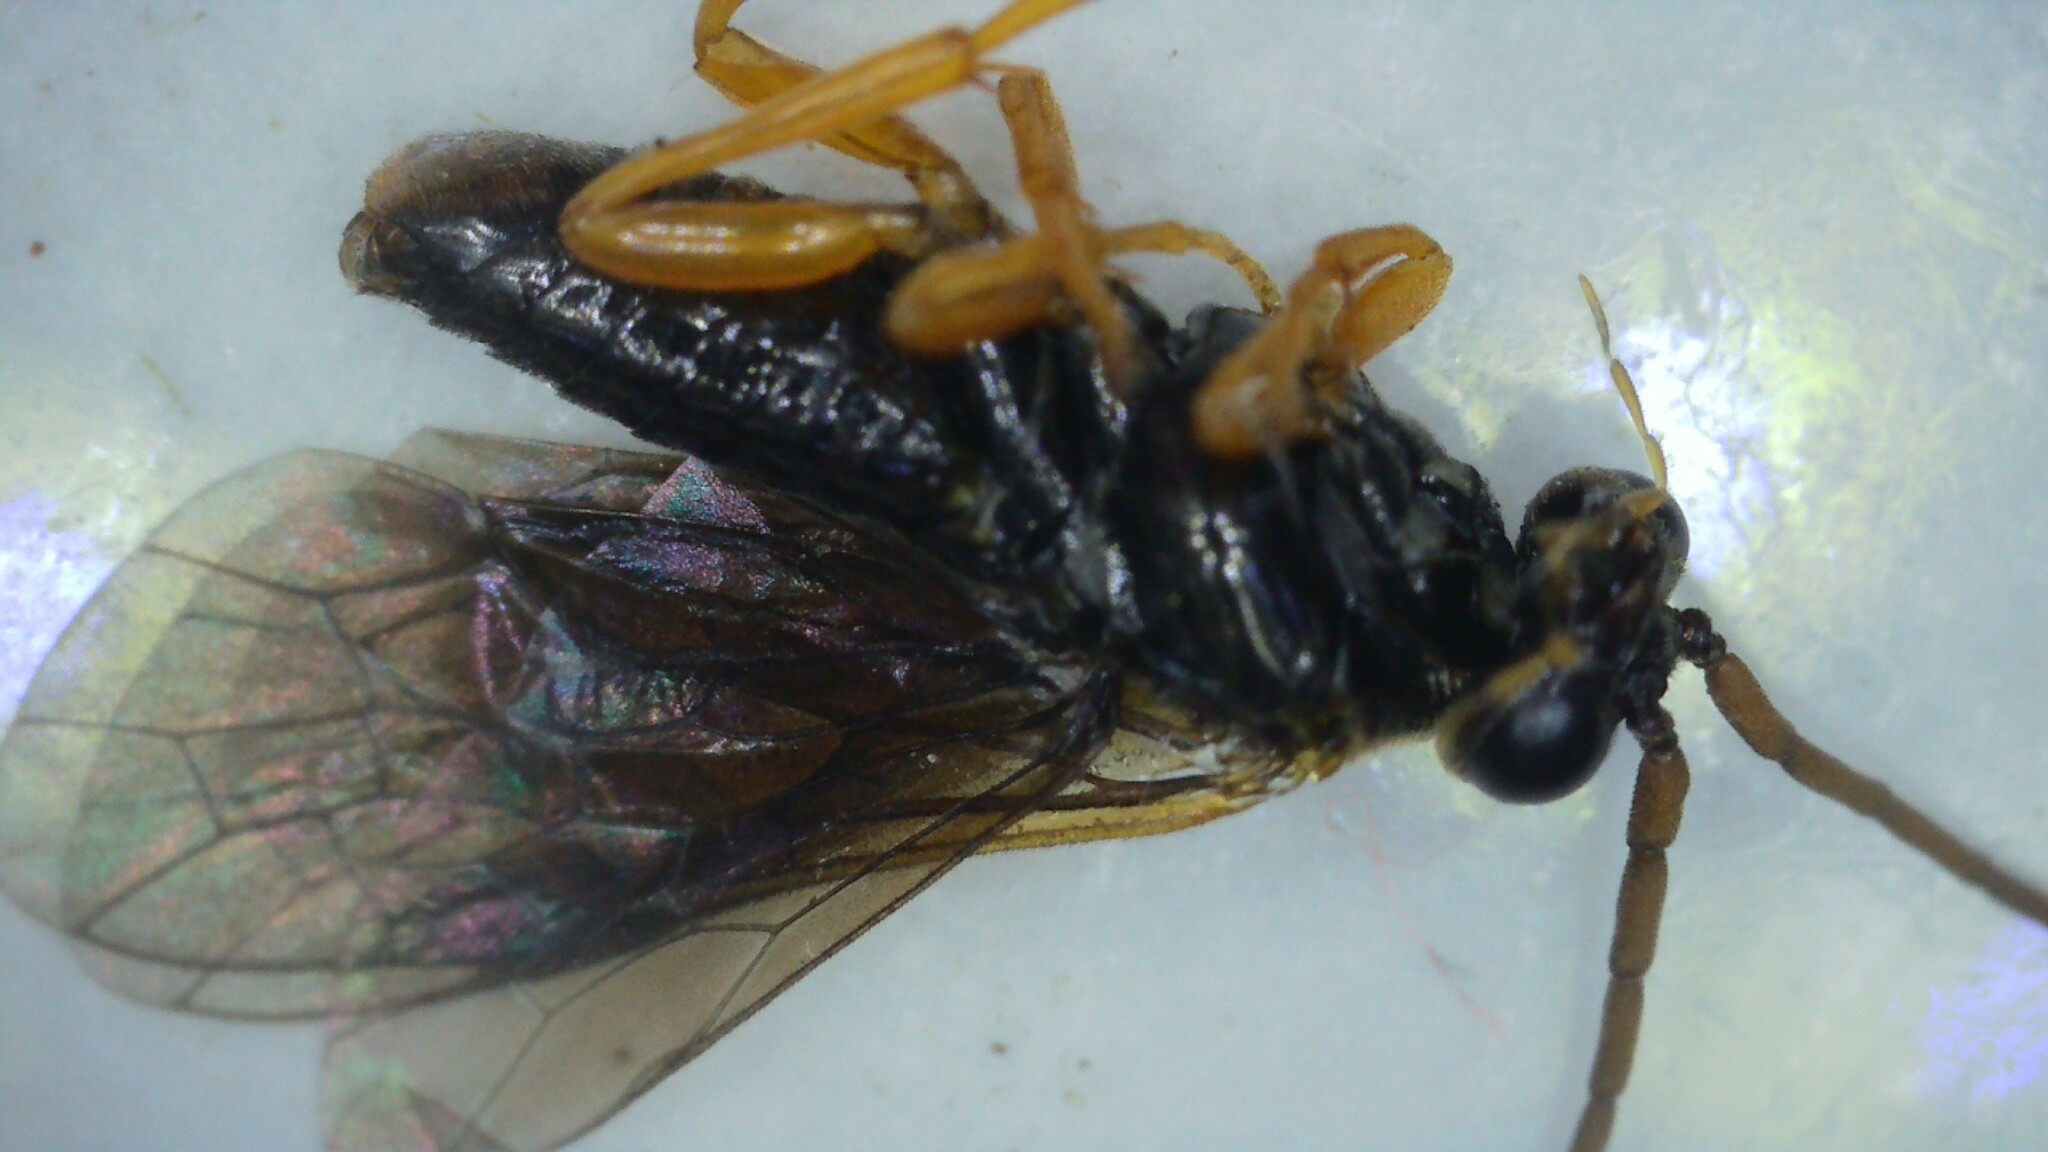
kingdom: Animalia
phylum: Arthropoda
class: Insecta
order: Hymenoptera
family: Tenthredinidae
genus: Hemichroa
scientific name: Hemichroa australis
